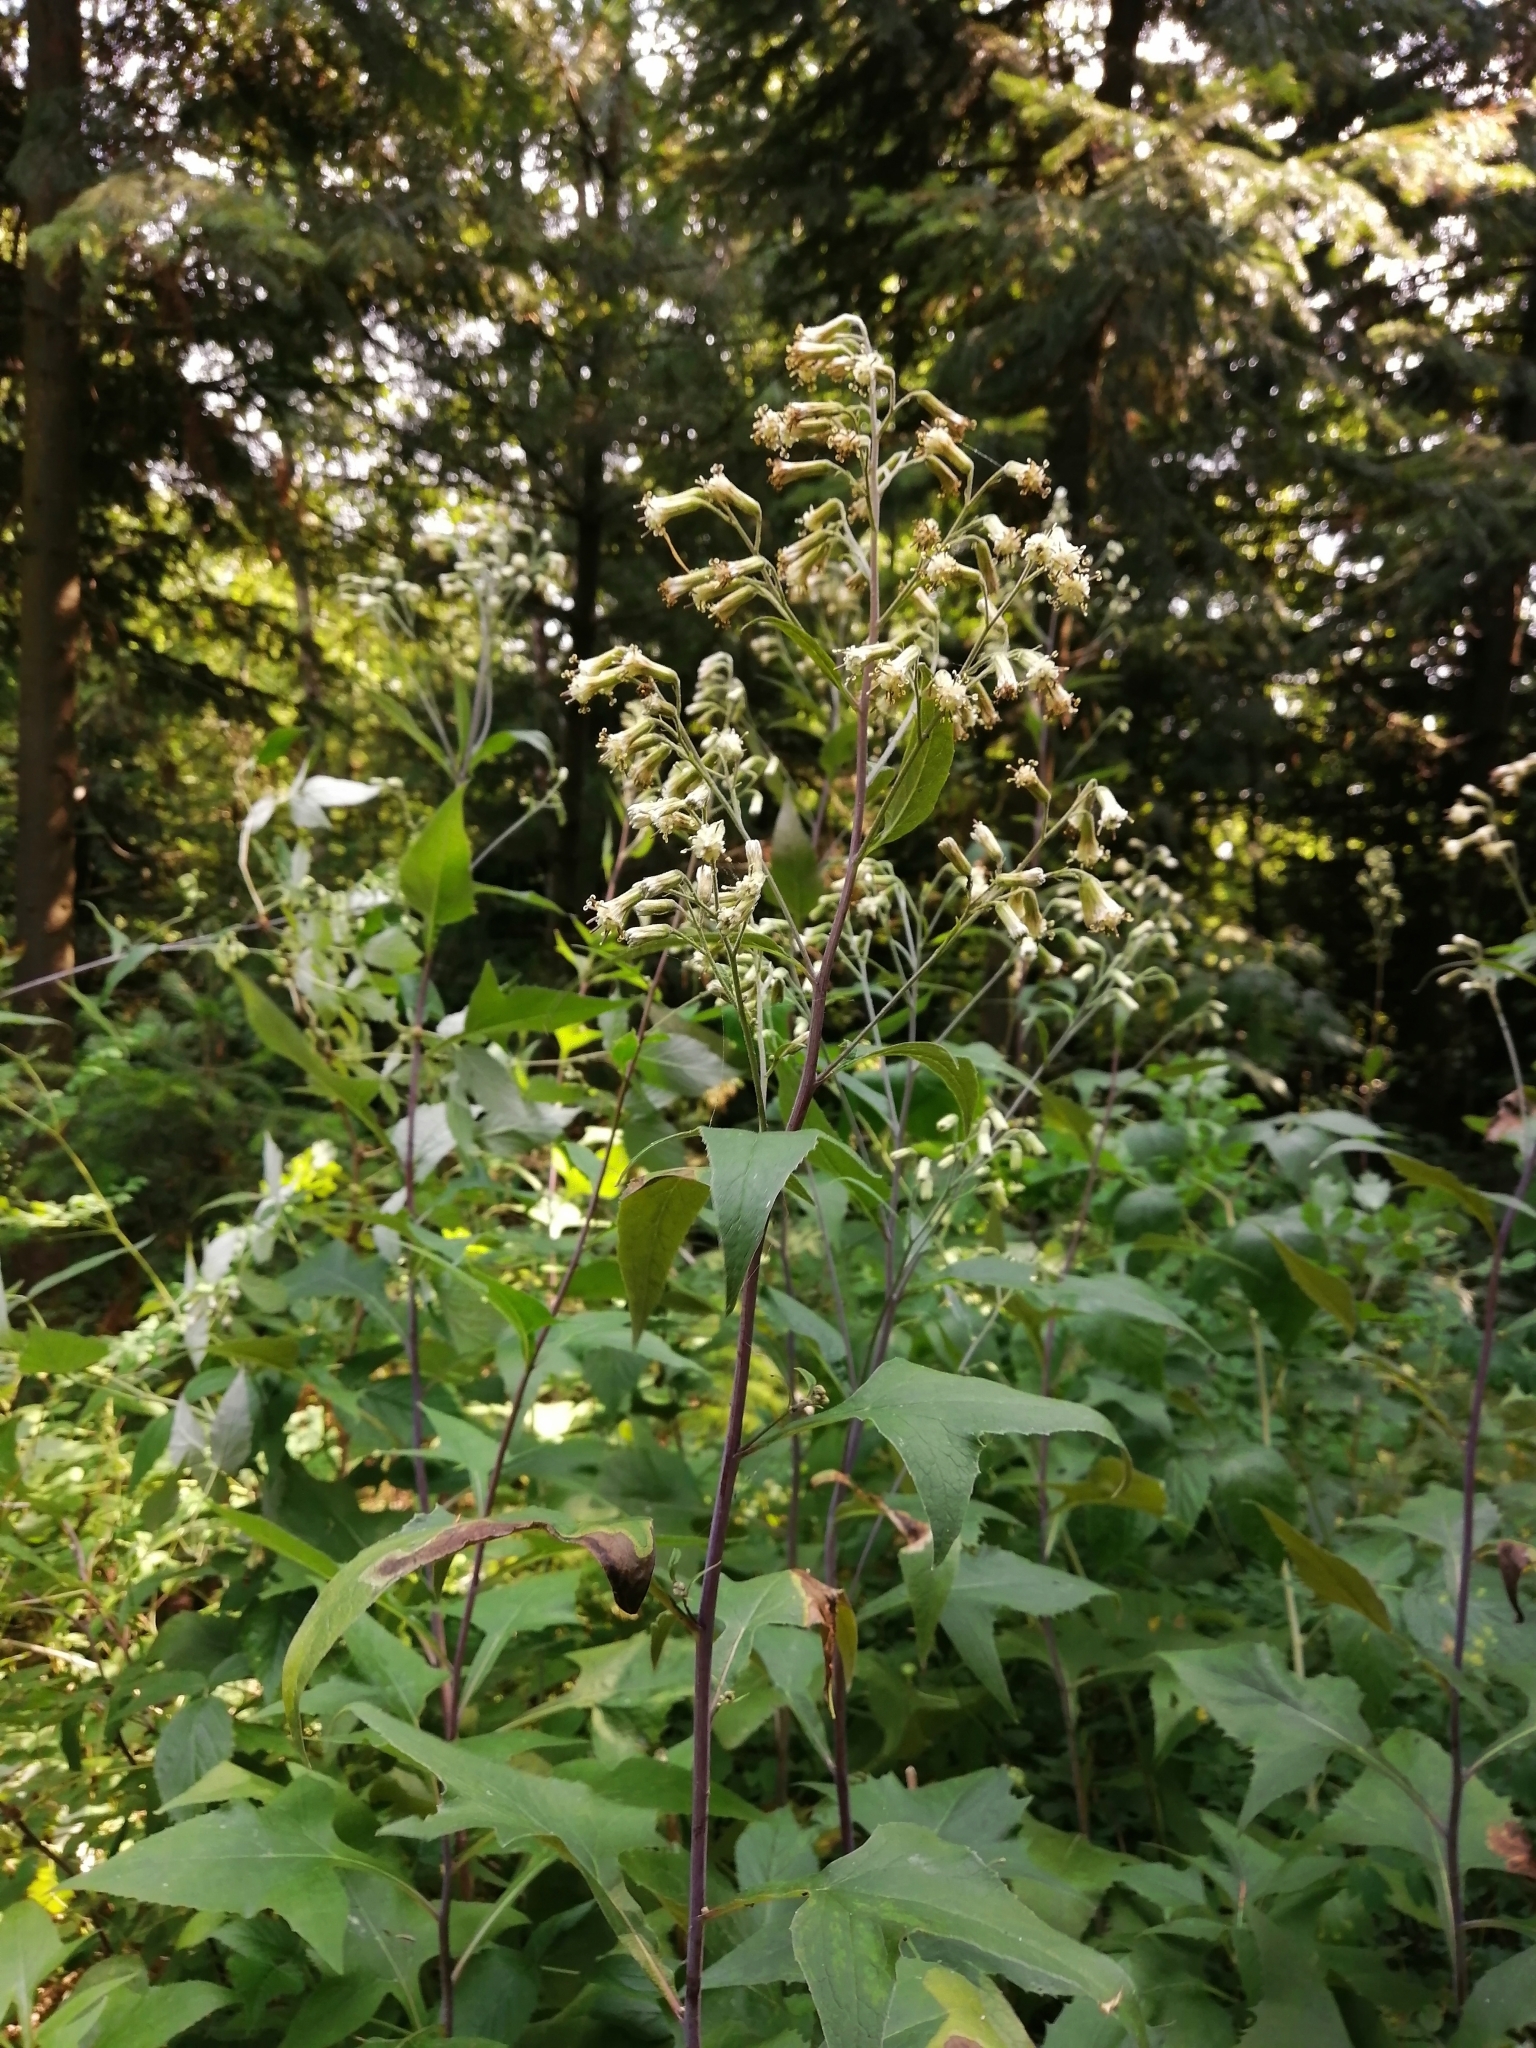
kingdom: Plantae
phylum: Tracheophyta
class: Magnoliopsida
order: Asterales
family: Asteraceae
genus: Parasenecio
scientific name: Parasenecio hastatus
